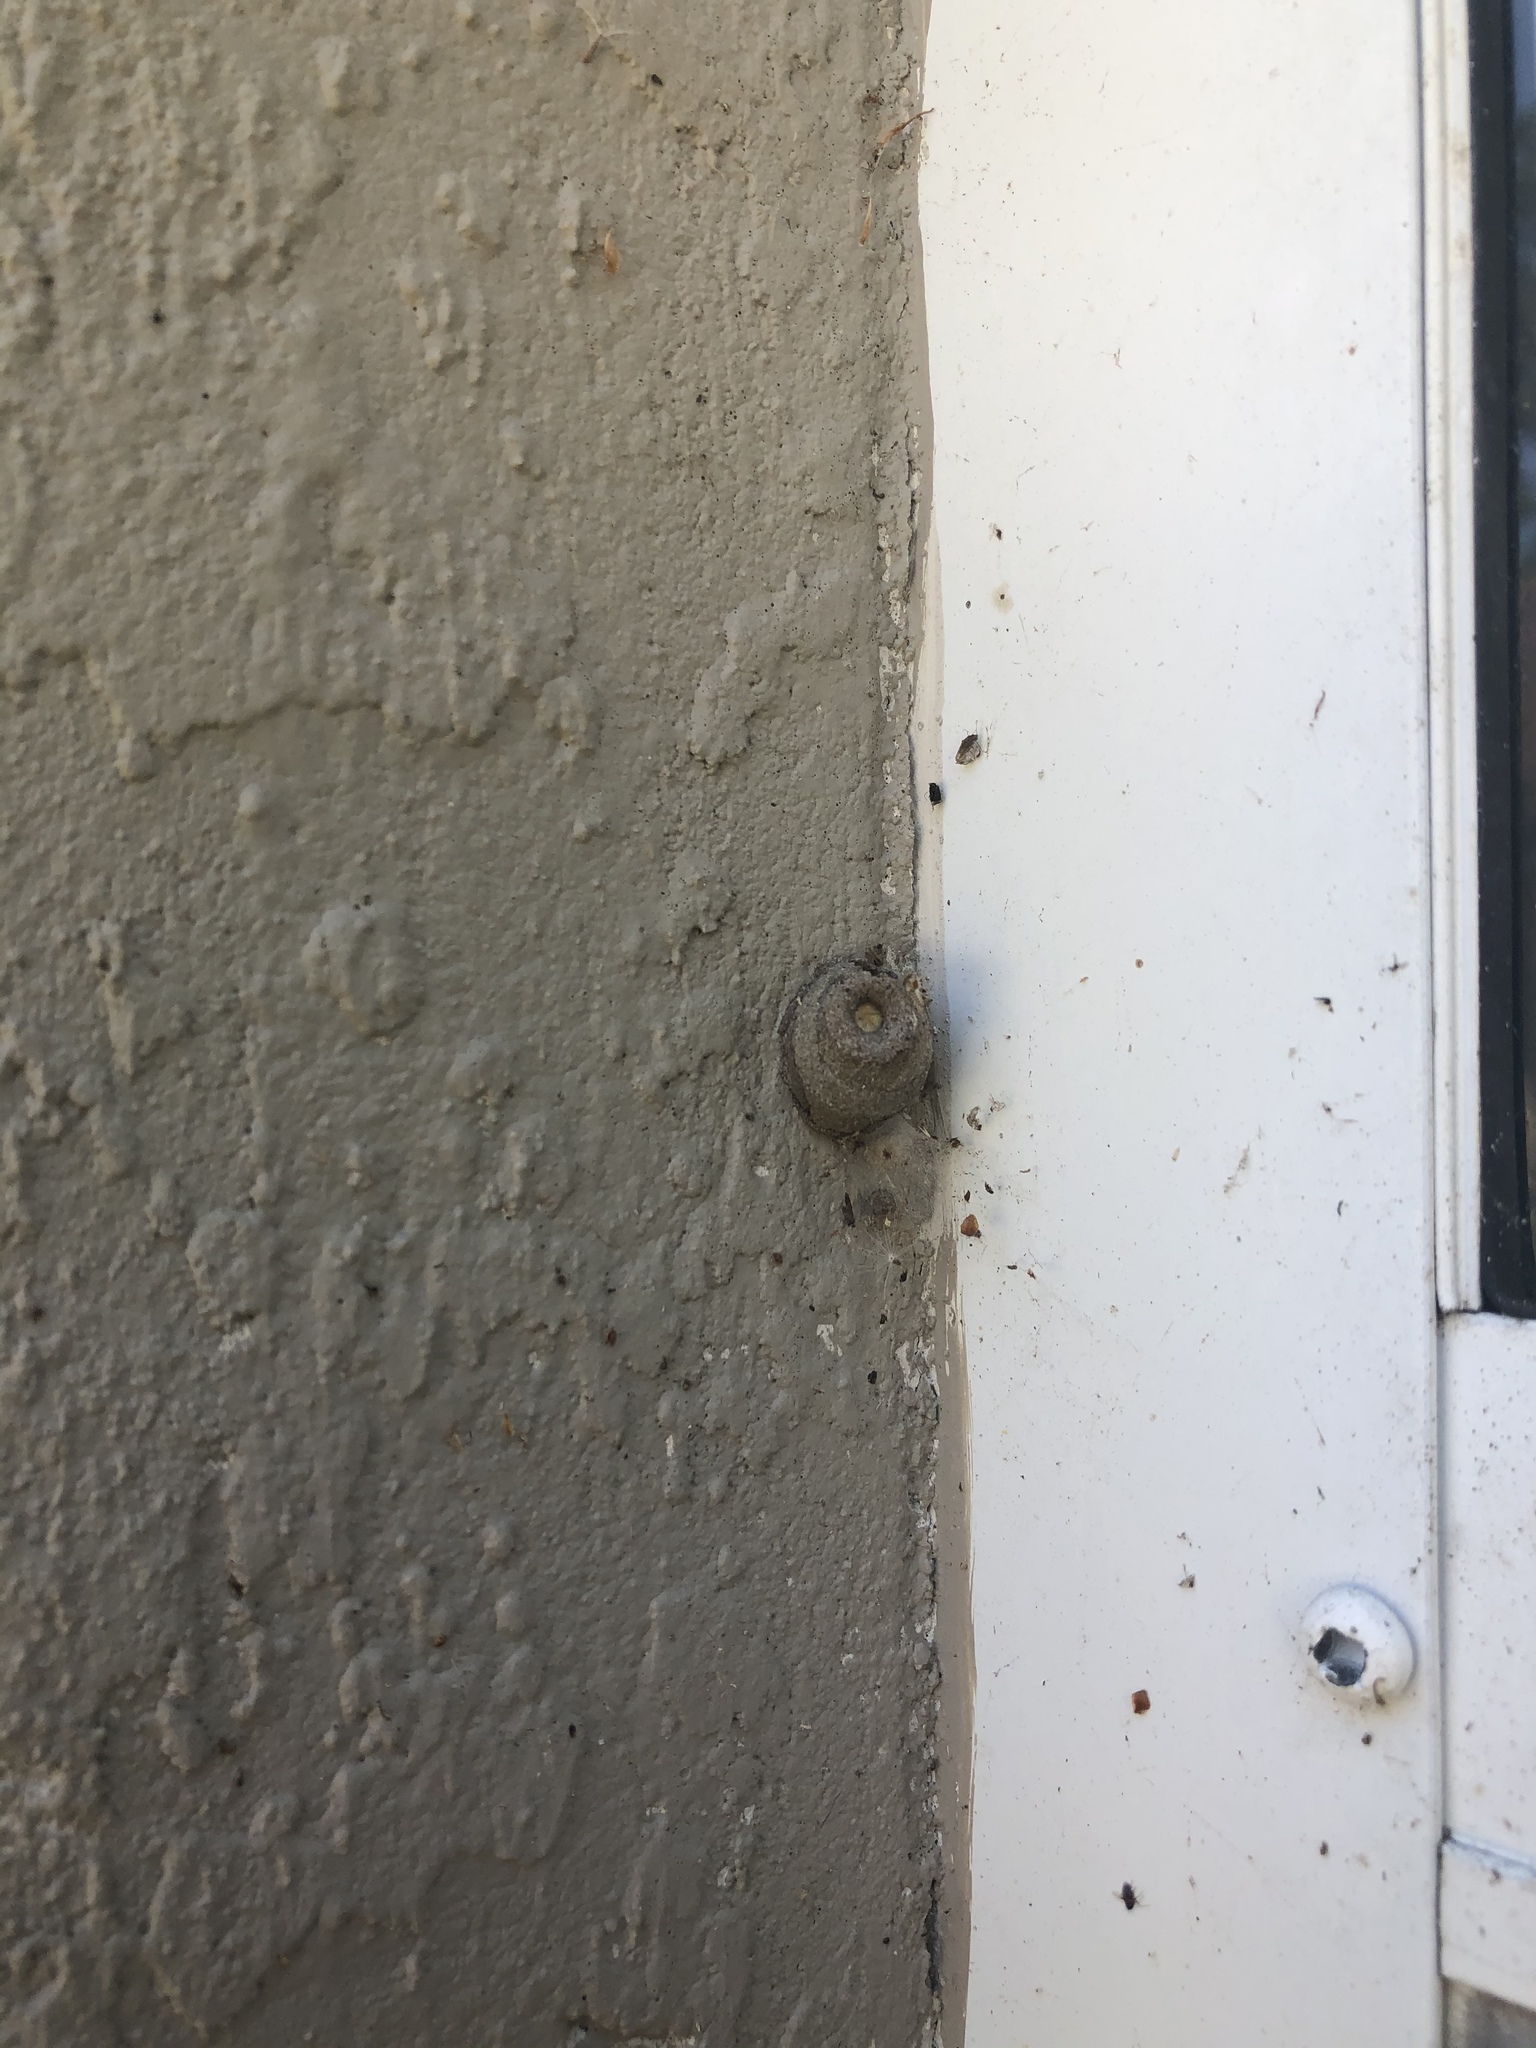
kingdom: Animalia
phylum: Arthropoda
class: Insecta
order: Hymenoptera
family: Eumenidae
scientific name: Eumenidae
